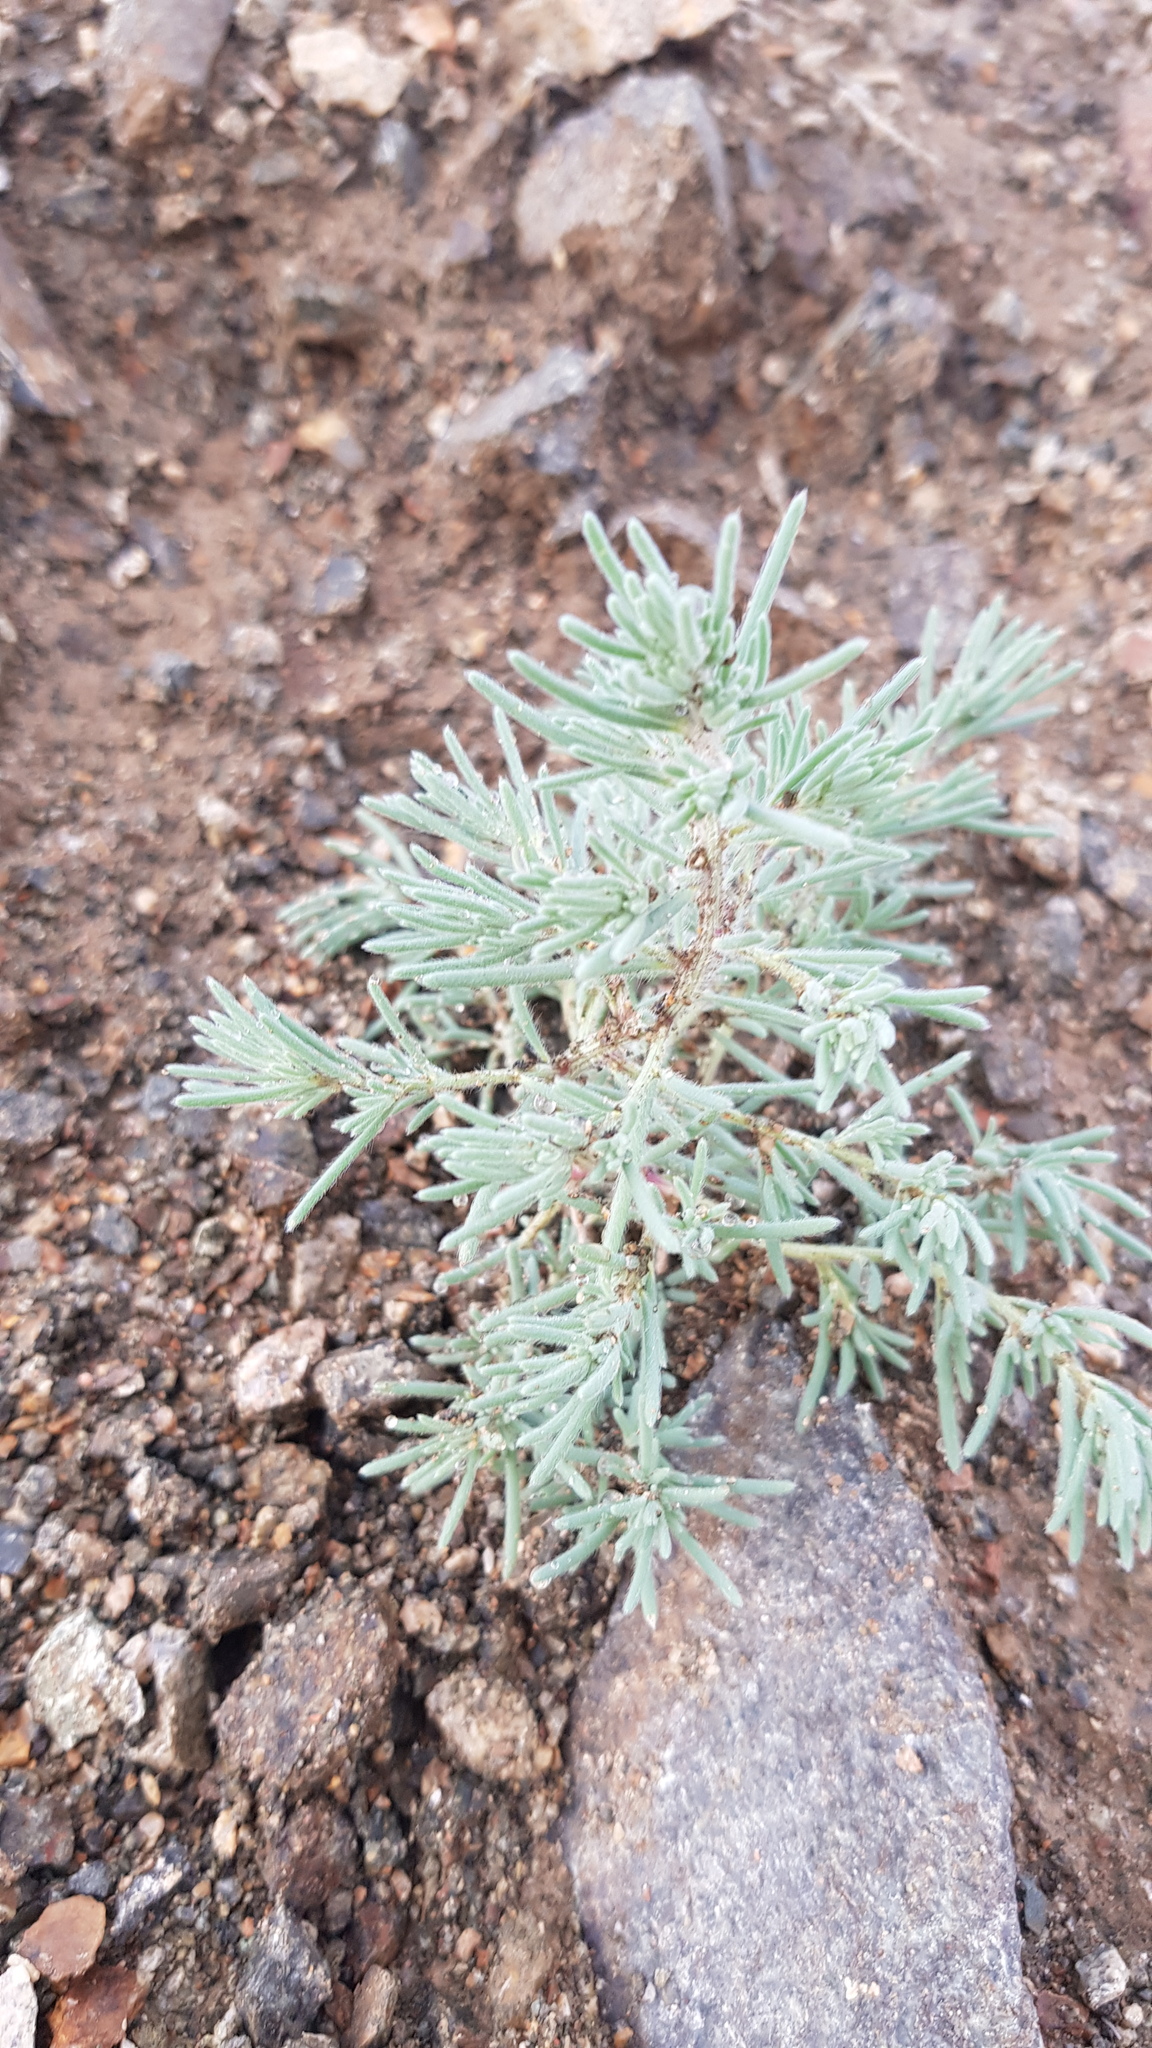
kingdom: Plantae
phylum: Tracheophyta
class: Magnoliopsida
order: Caryophyllales
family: Amaranthaceae
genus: Grubovia
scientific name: Grubovia dasyphylla
